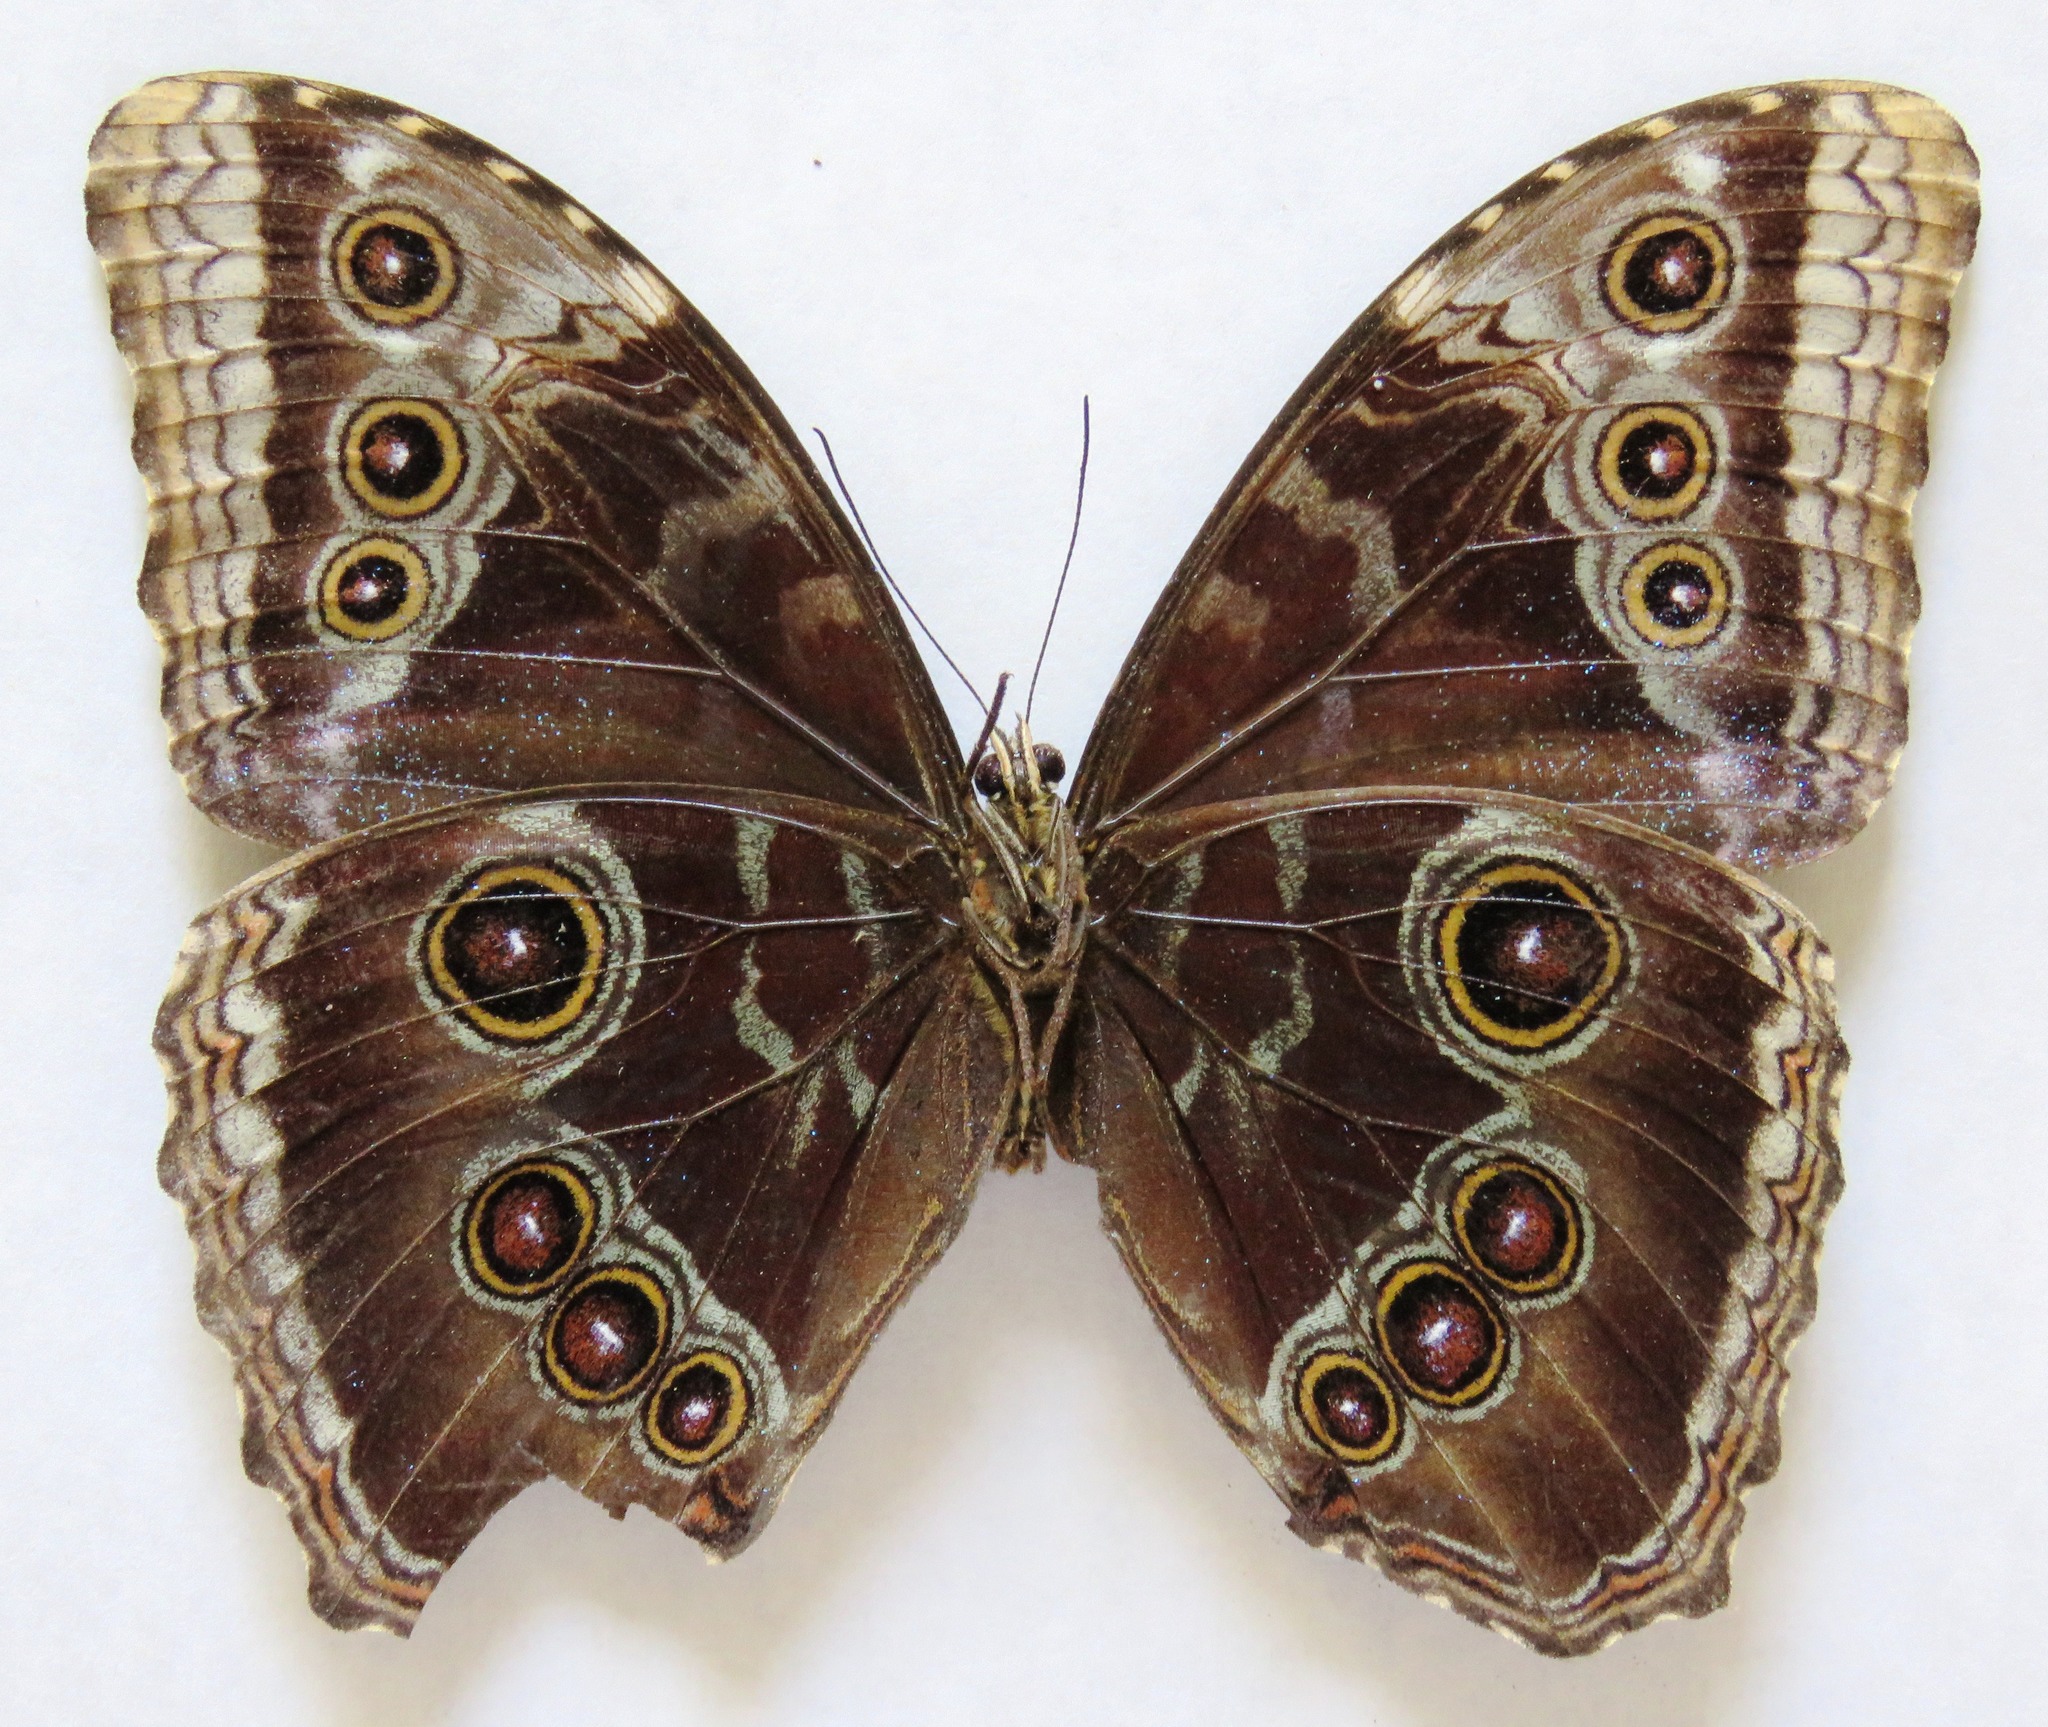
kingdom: Animalia
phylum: Arthropoda
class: Insecta
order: Lepidoptera
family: Nymphalidae
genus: Morpho
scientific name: Morpho helenor
